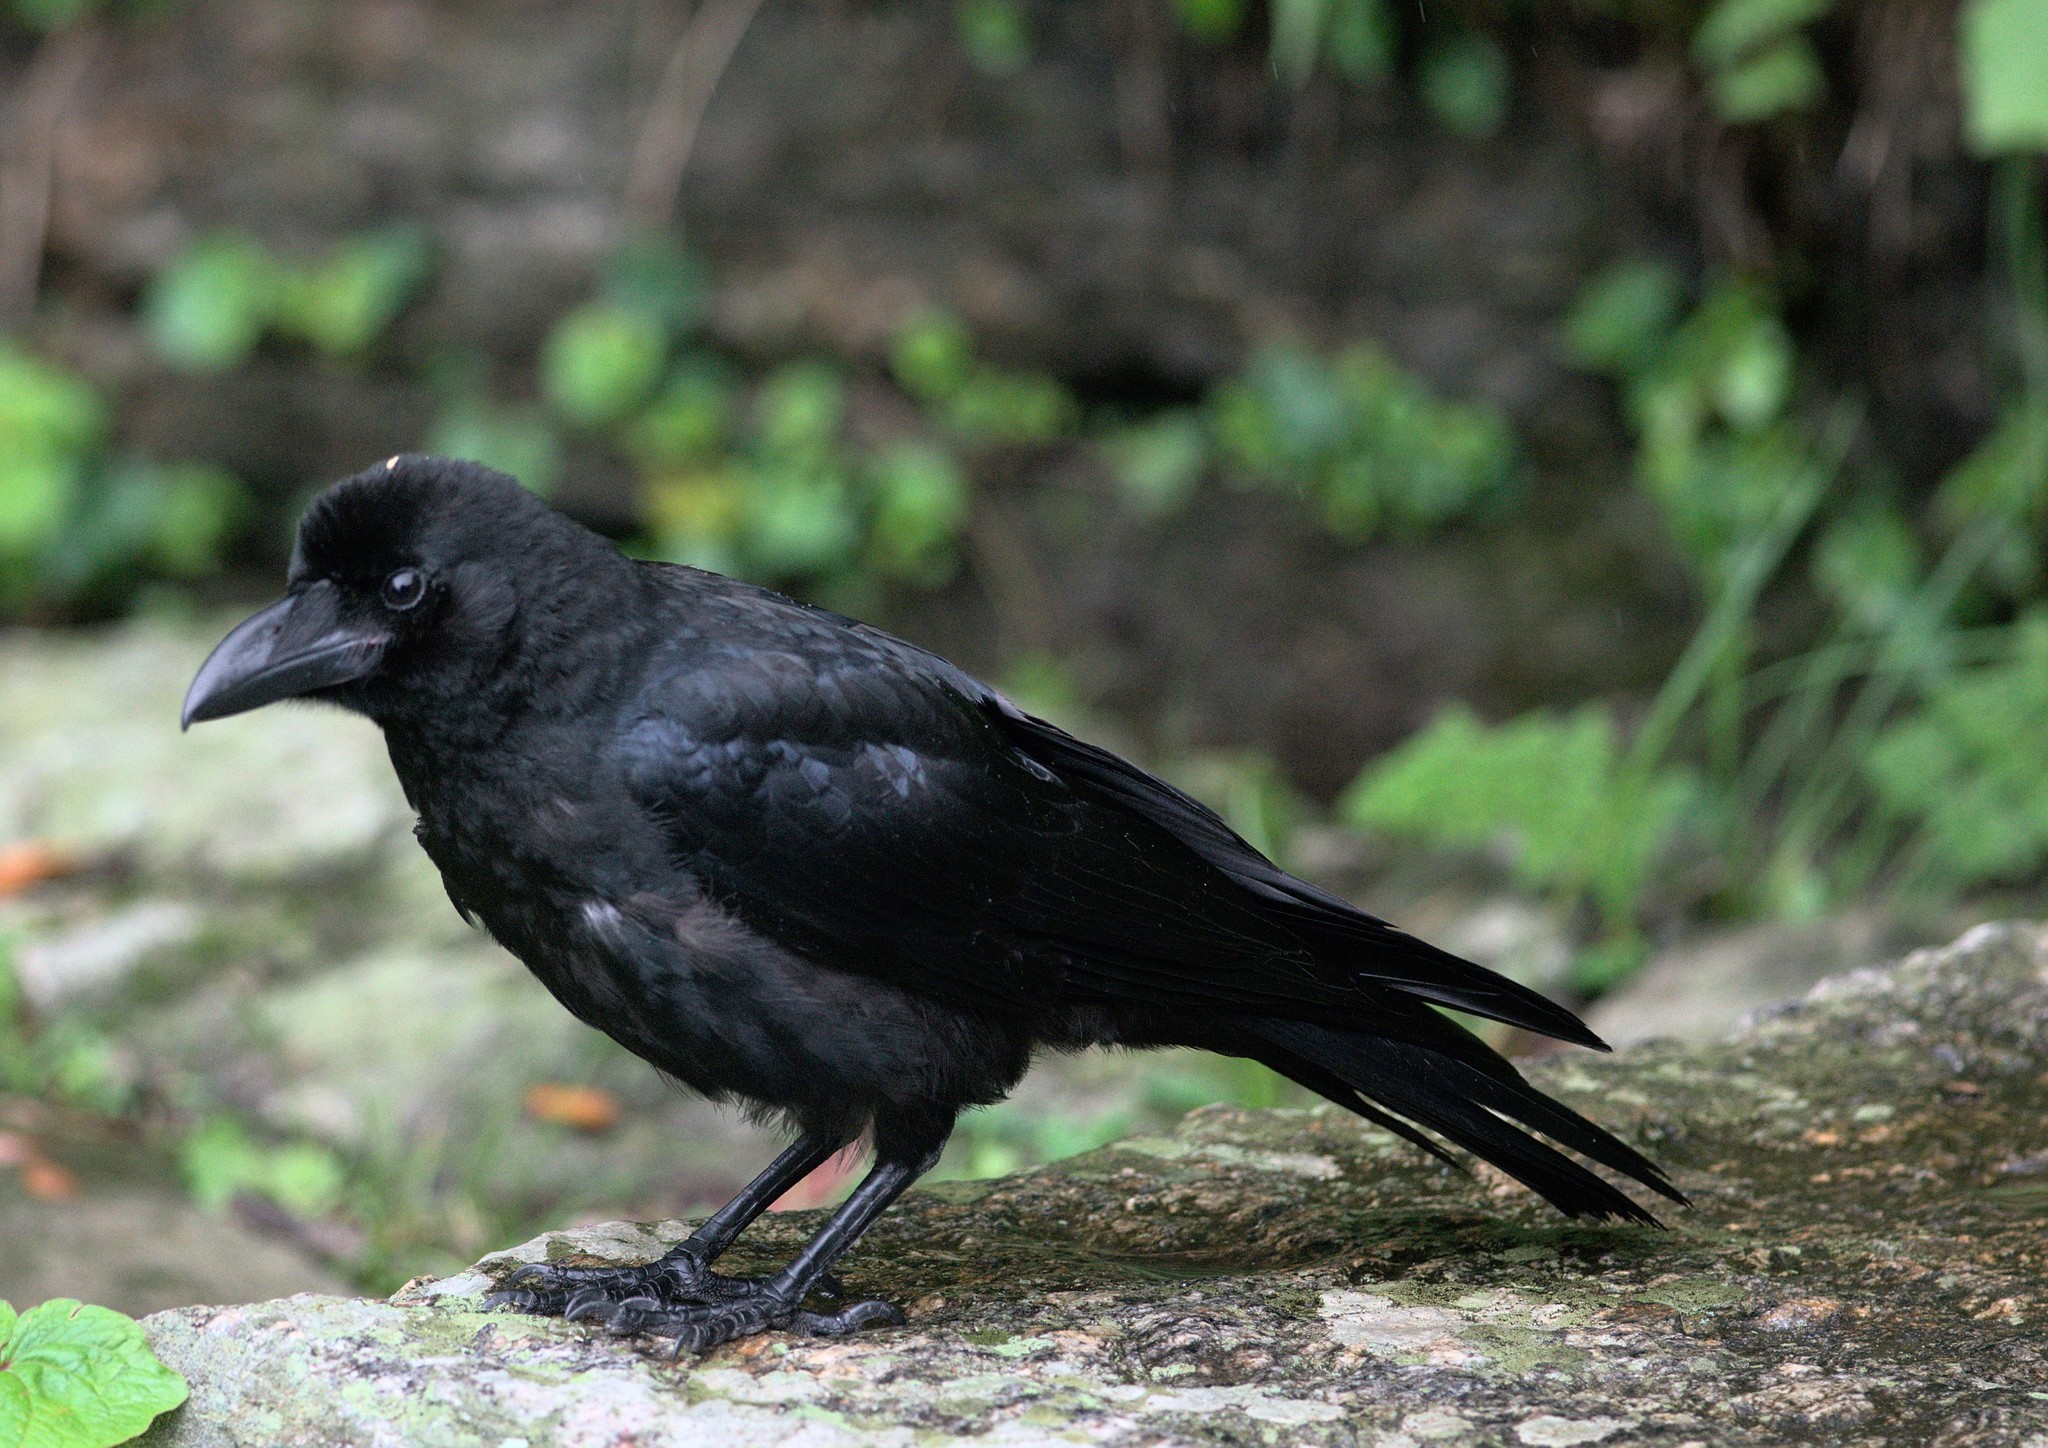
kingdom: Animalia
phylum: Chordata
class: Aves
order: Passeriformes
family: Corvidae
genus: Corvus
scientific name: Corvus macrorhynchos
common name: Large-billed crow
